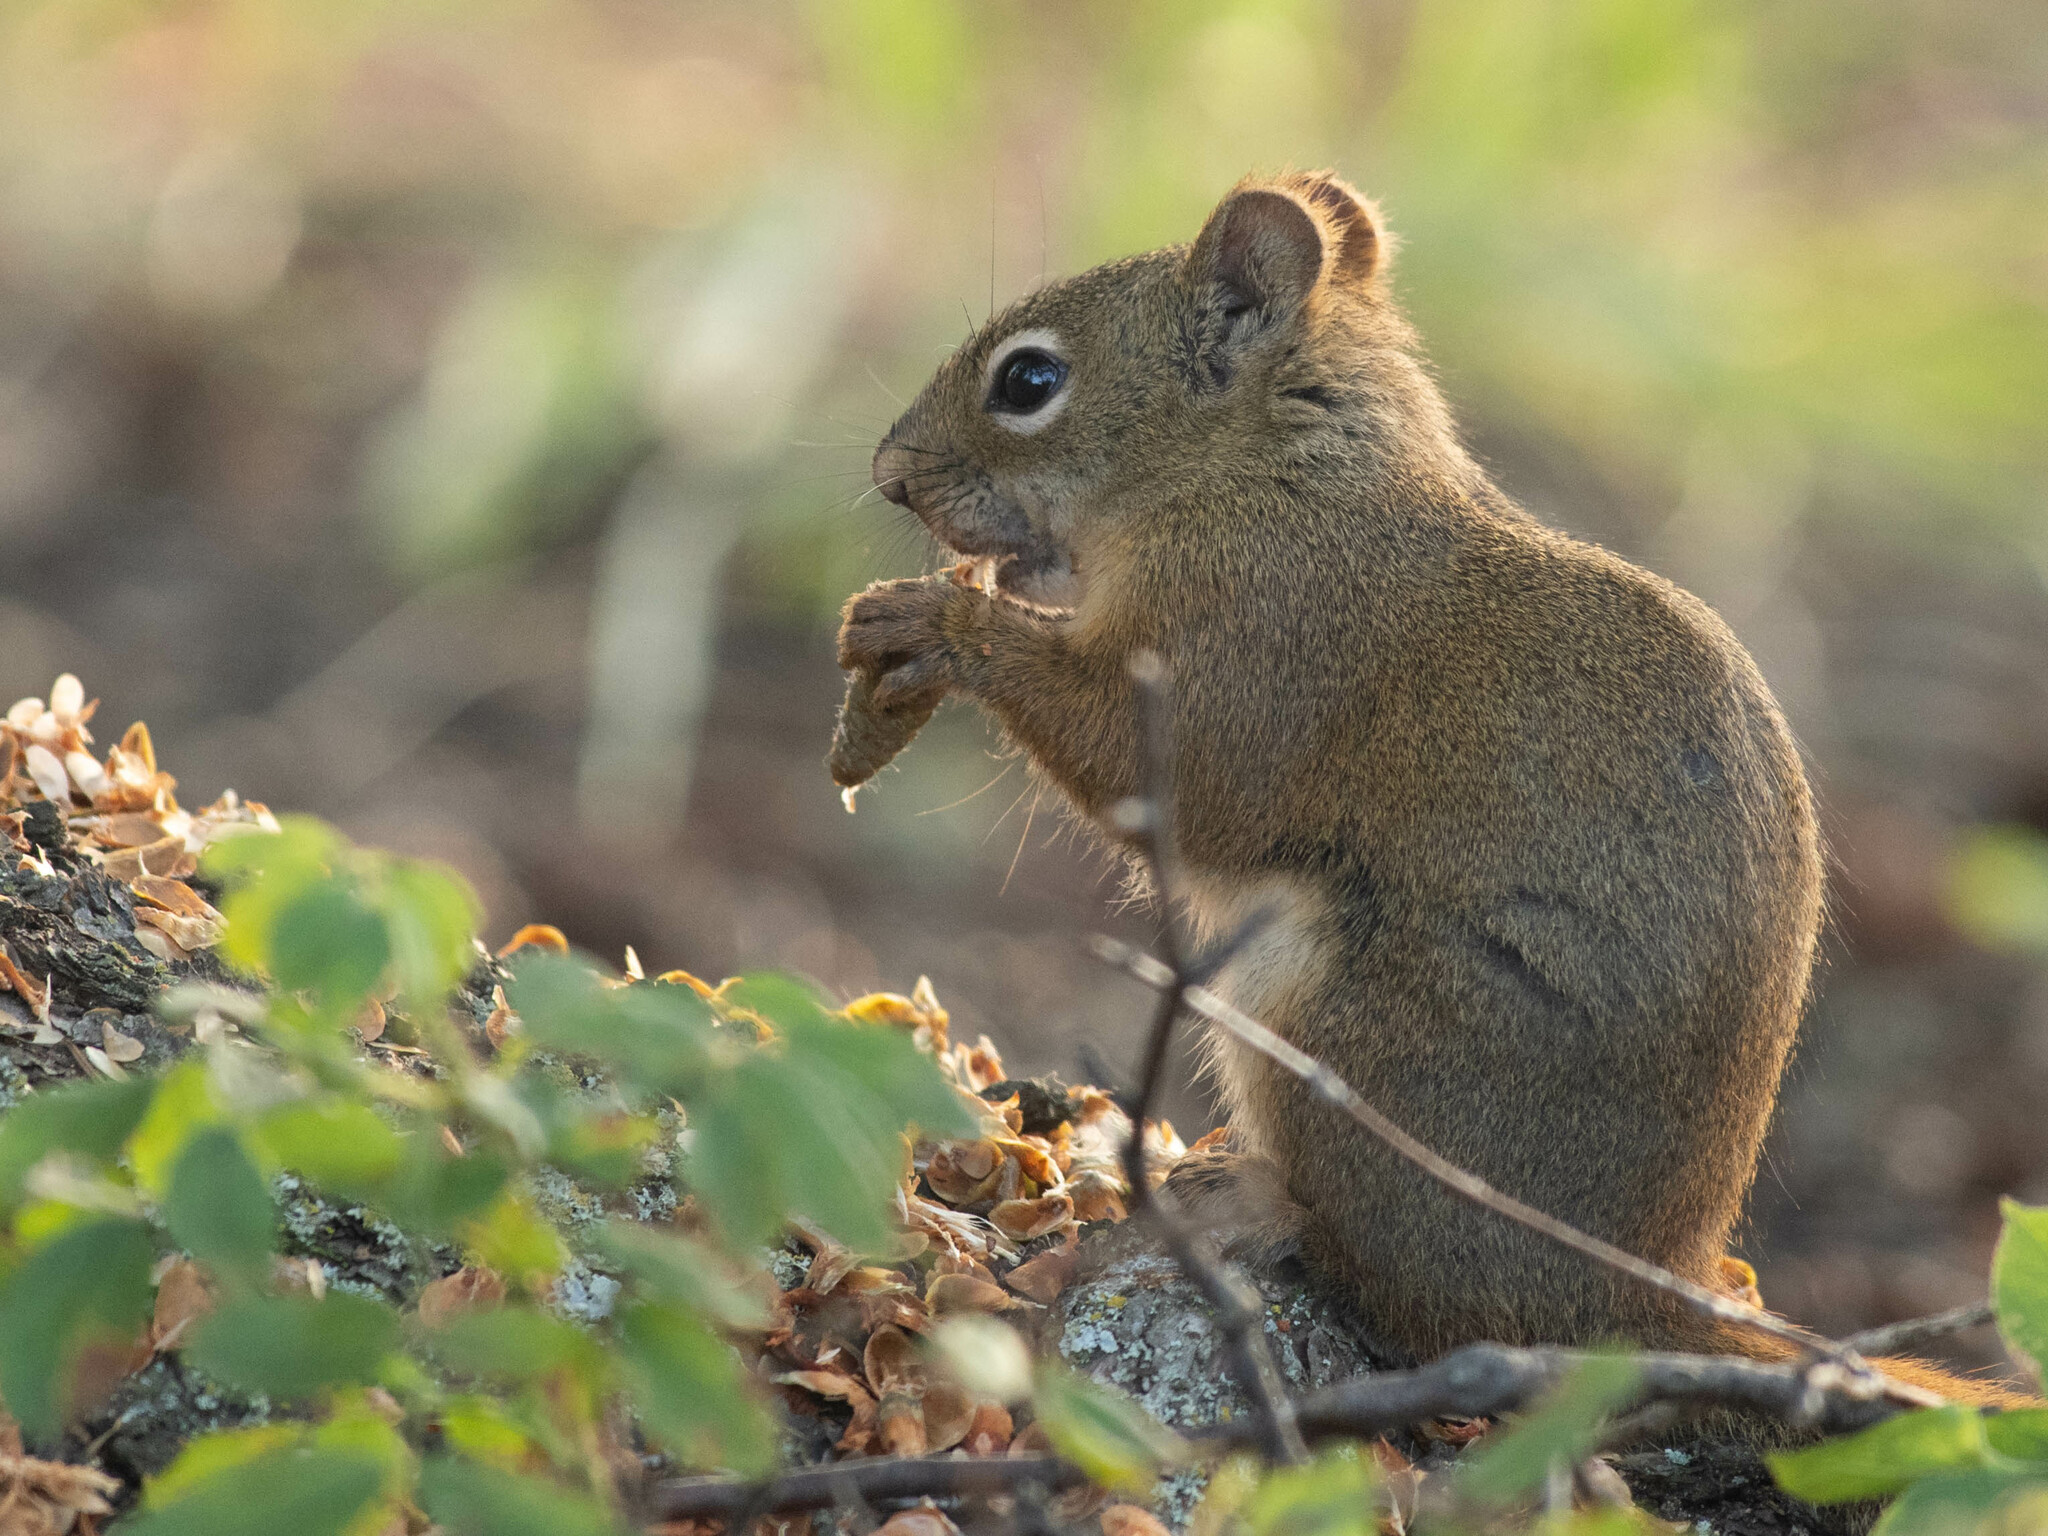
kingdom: Animalia
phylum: Chordata
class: Mammalia
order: Rodentia
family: Sciuridae
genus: Tamiasciurus
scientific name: Tamiasciurus hudsonicus
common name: Red squirrel
